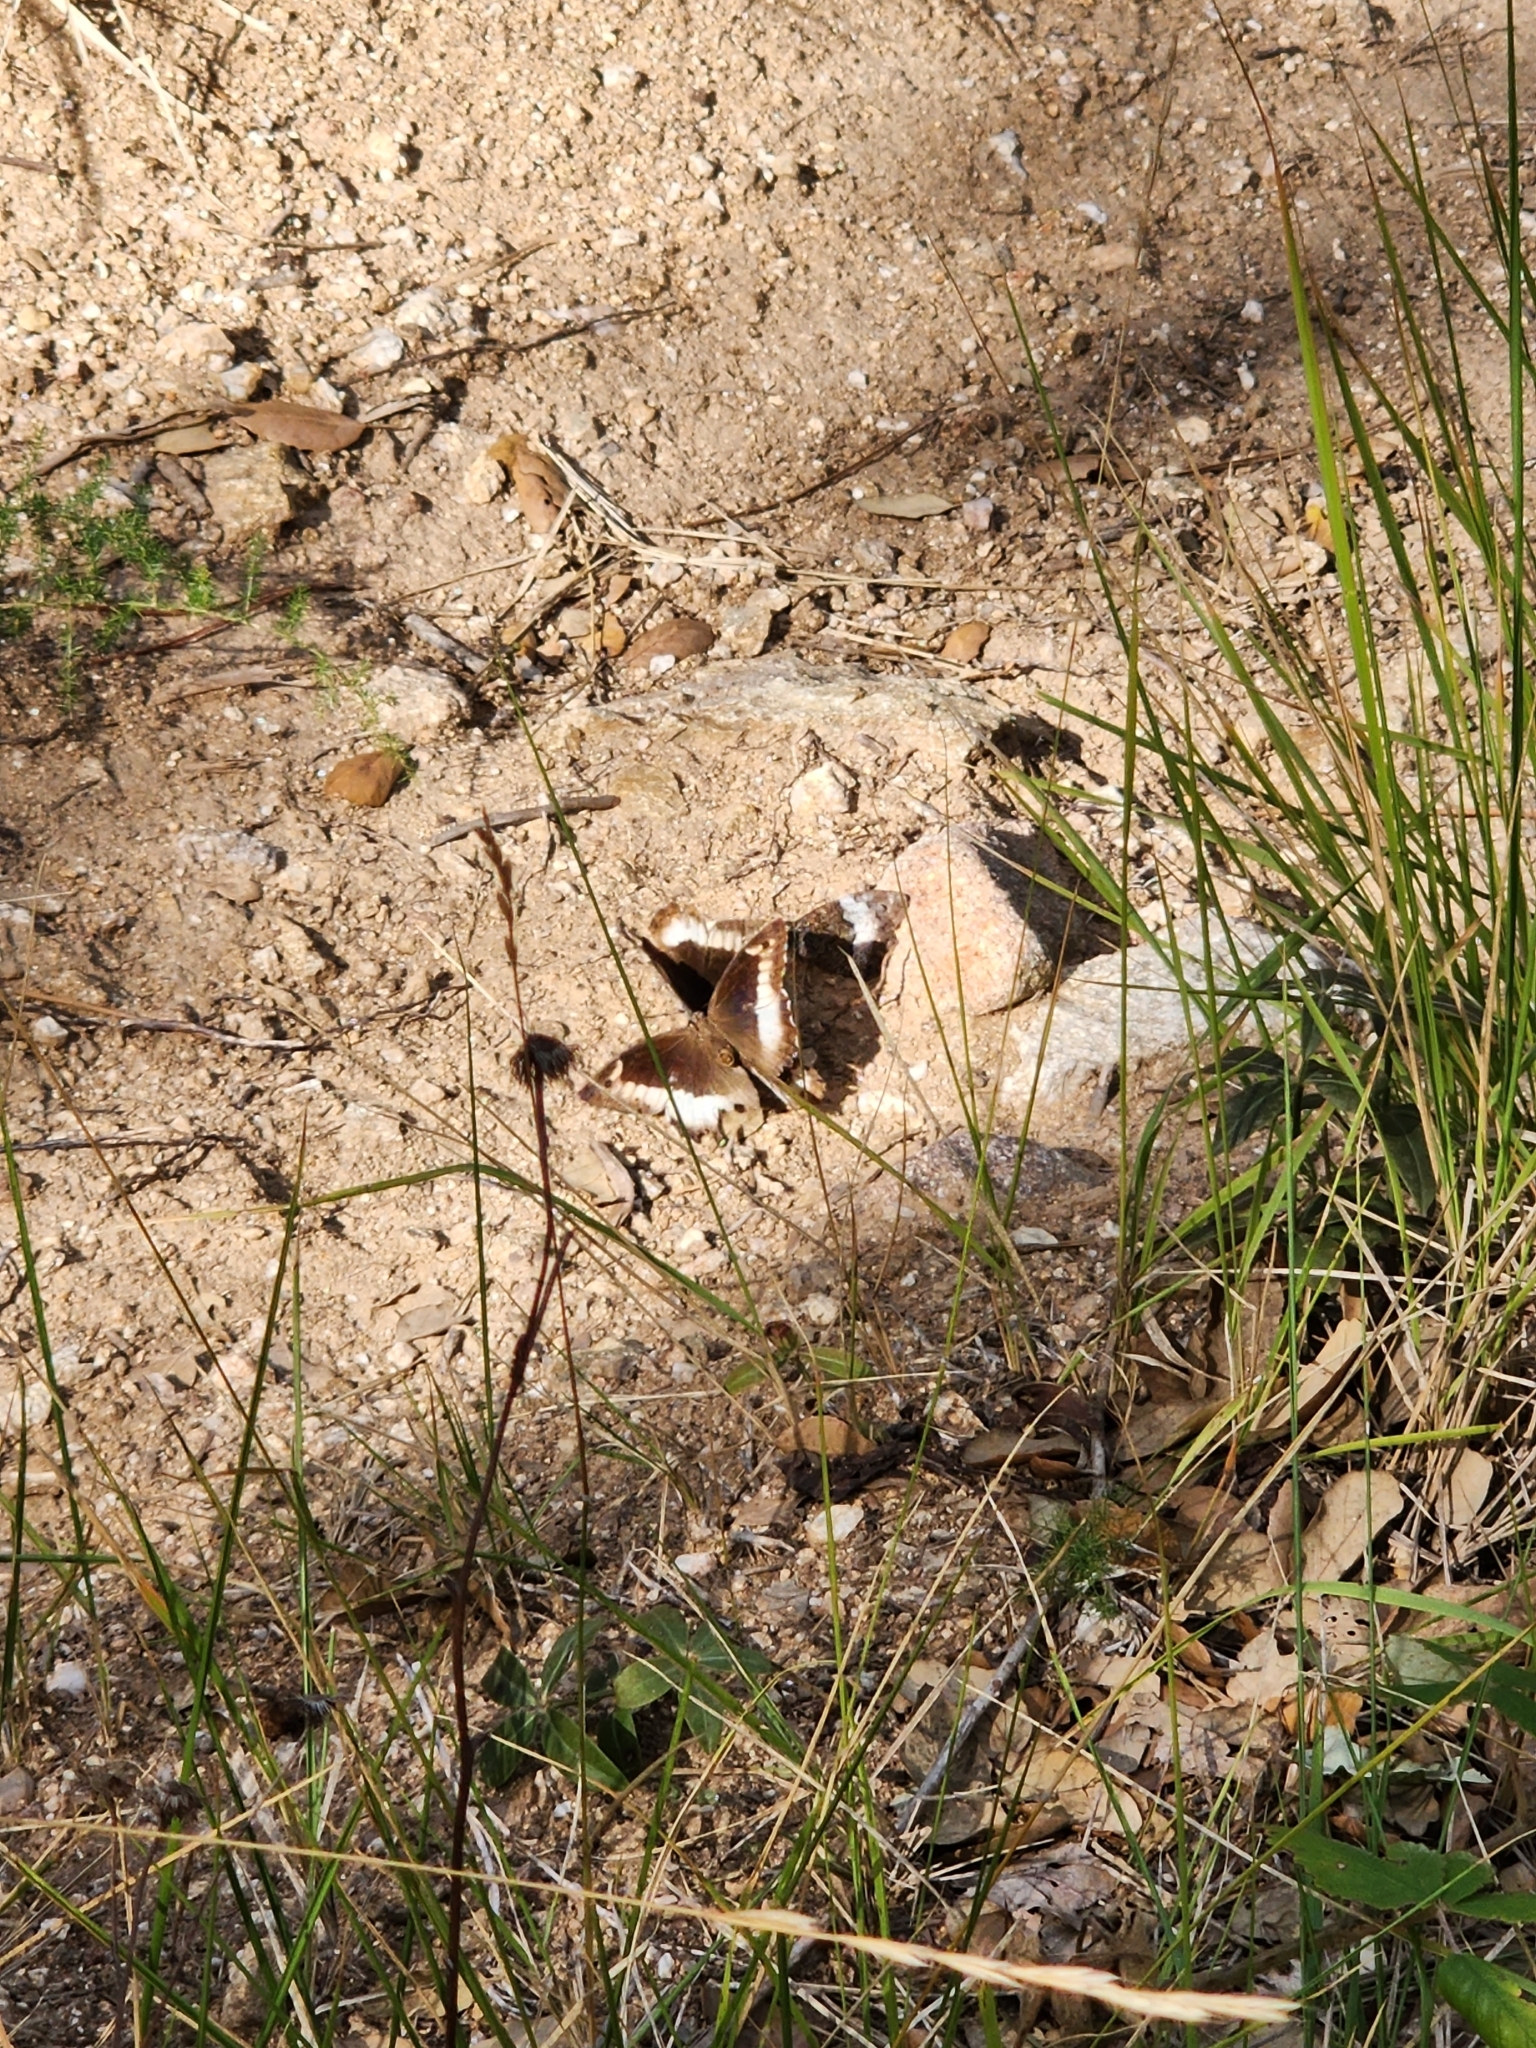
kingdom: Animalia
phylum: Arthropoda
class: Insecta
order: Lepidoptera
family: Nymphalidae
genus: Hipparchia
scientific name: Hipparchia fagi
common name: Woodland grayling
